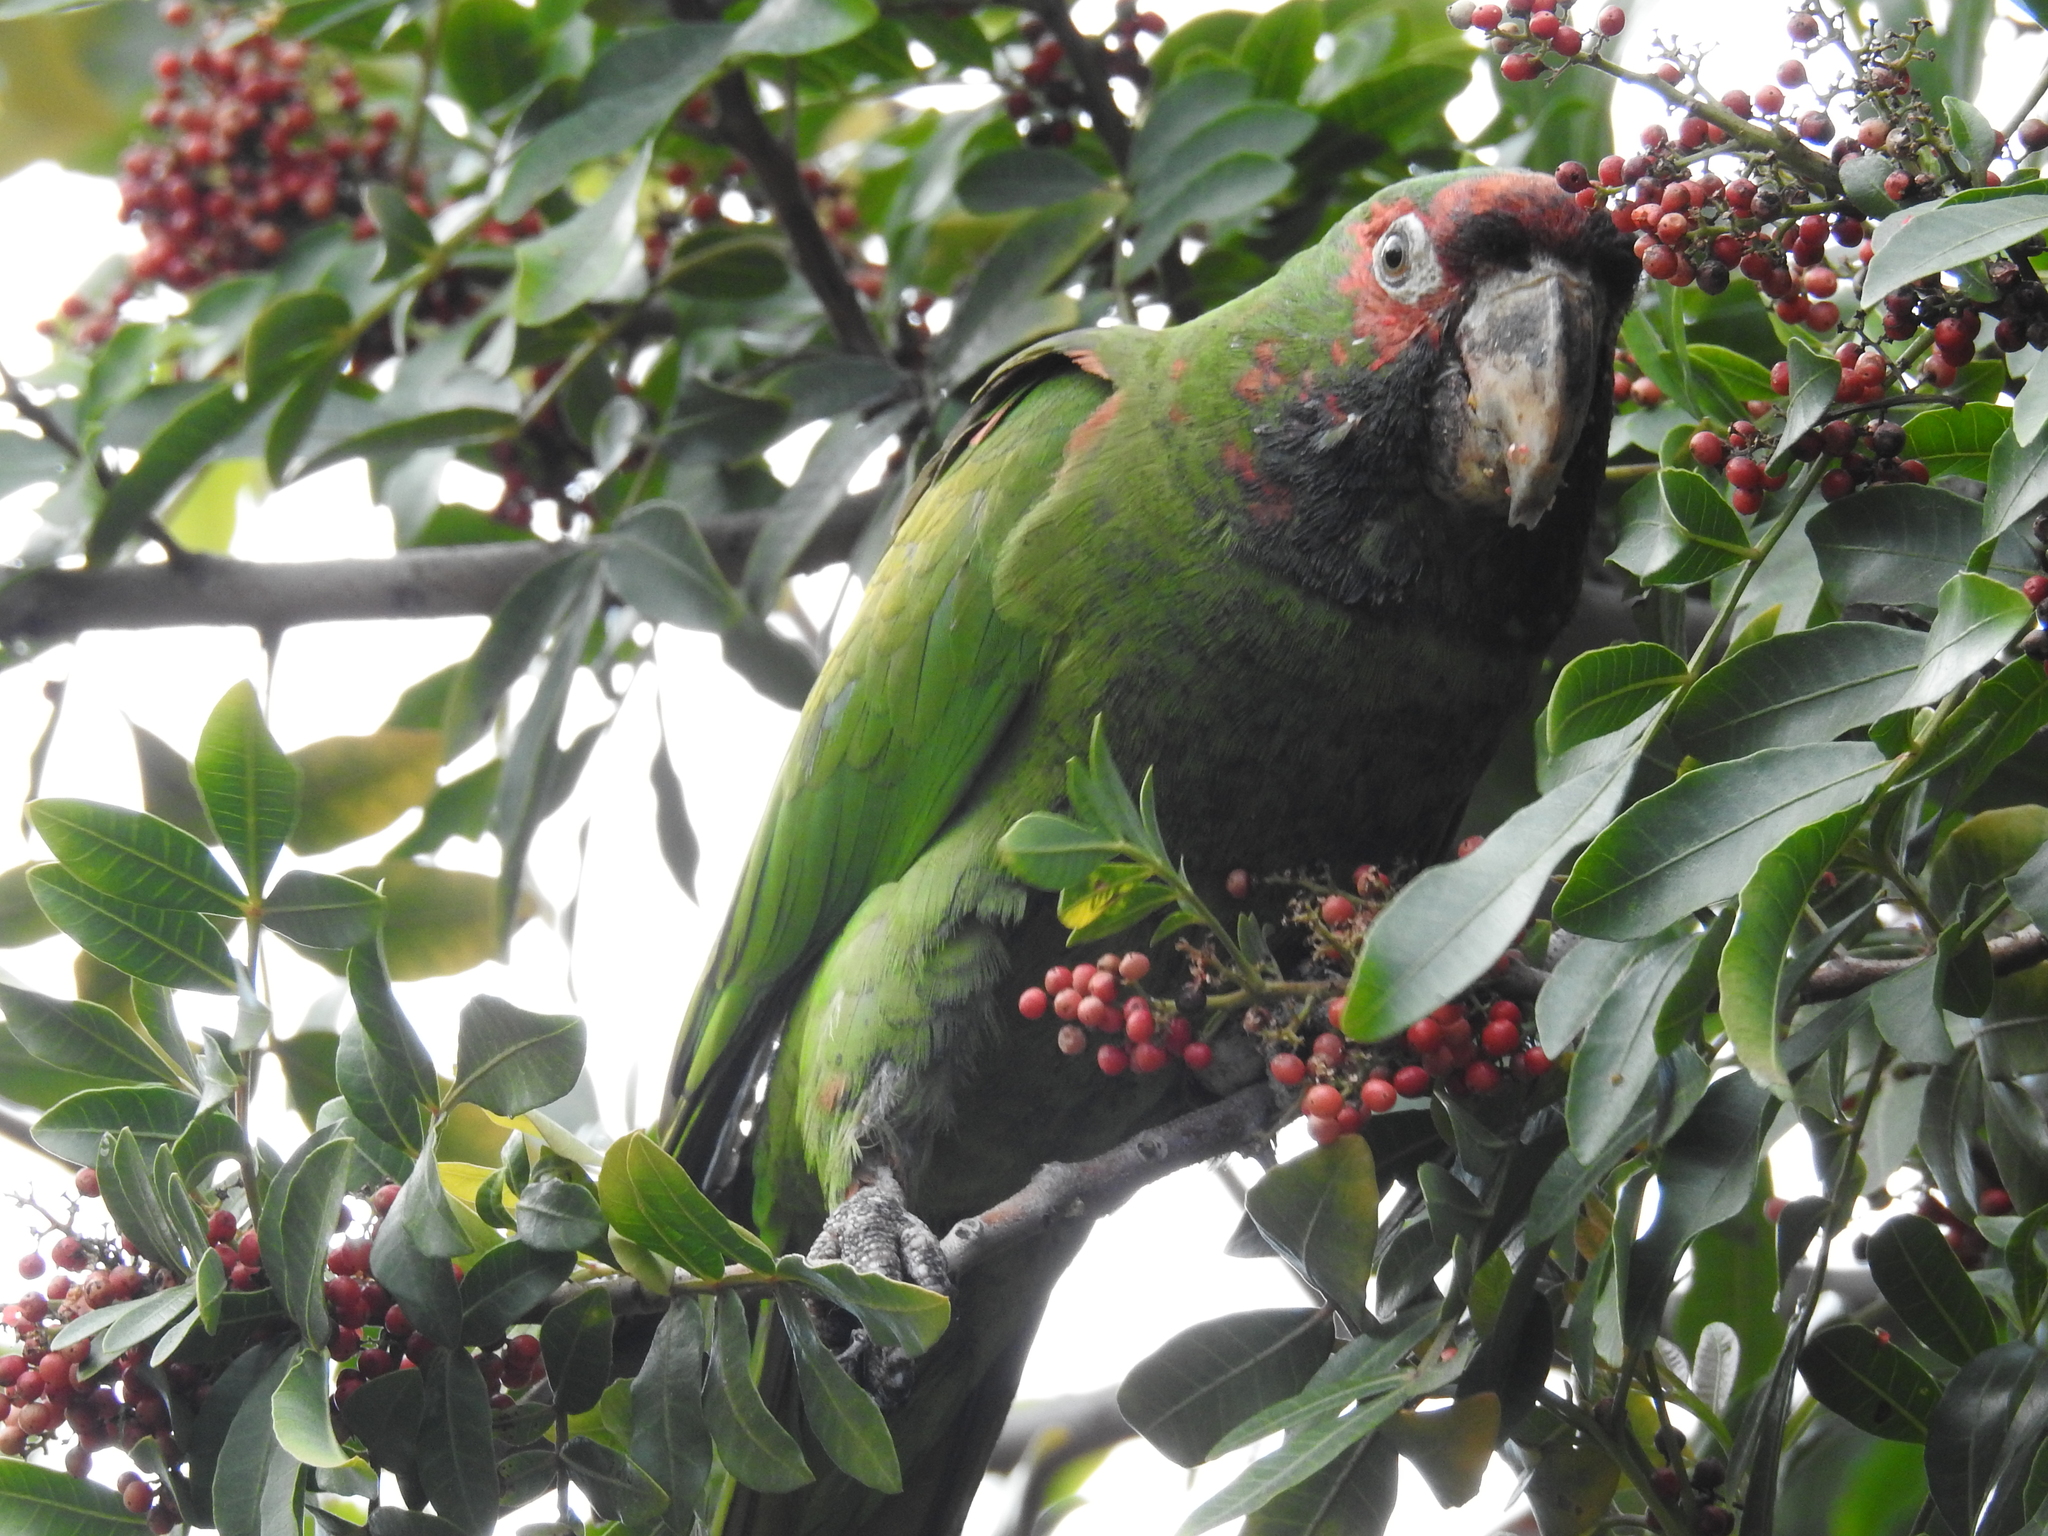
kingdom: Animalia
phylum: Chordata
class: Aves
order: Psittaciformes
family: Psittacidae
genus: Aratinga
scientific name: Aratinga mitrata
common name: Mitred parakeet
